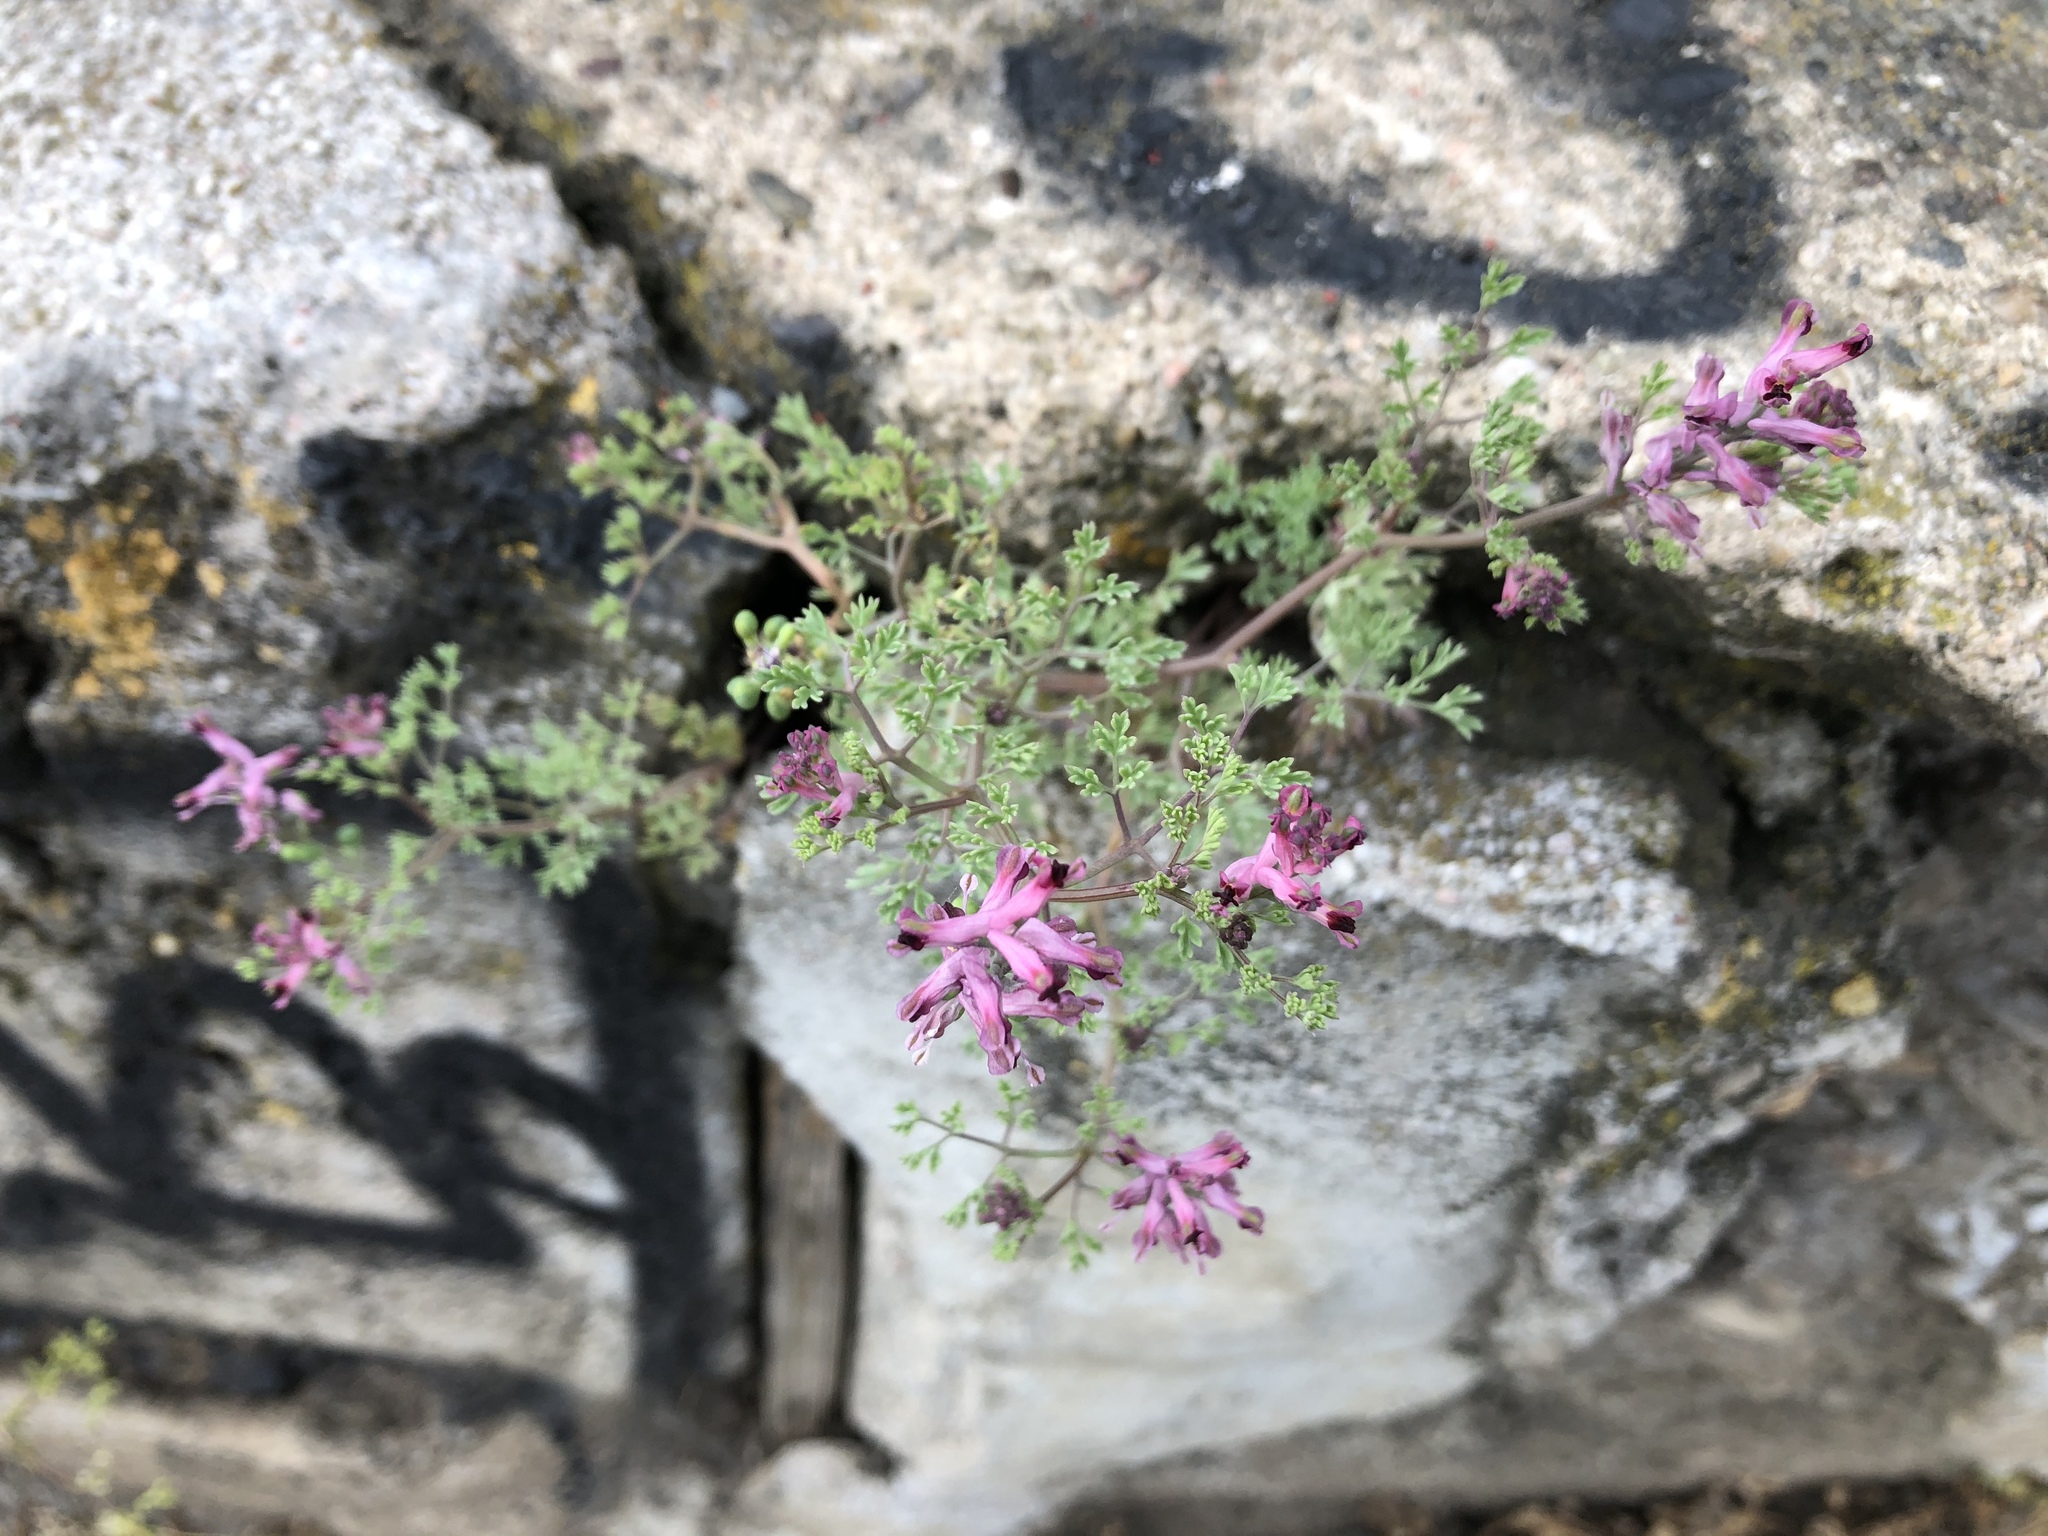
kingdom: Plantae
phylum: Tracheophyta
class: Magnoliopsida
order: Ranunculales
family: Papaveraceae
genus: Fumaria
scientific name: Fumaria officinalis
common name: Common fumitory
